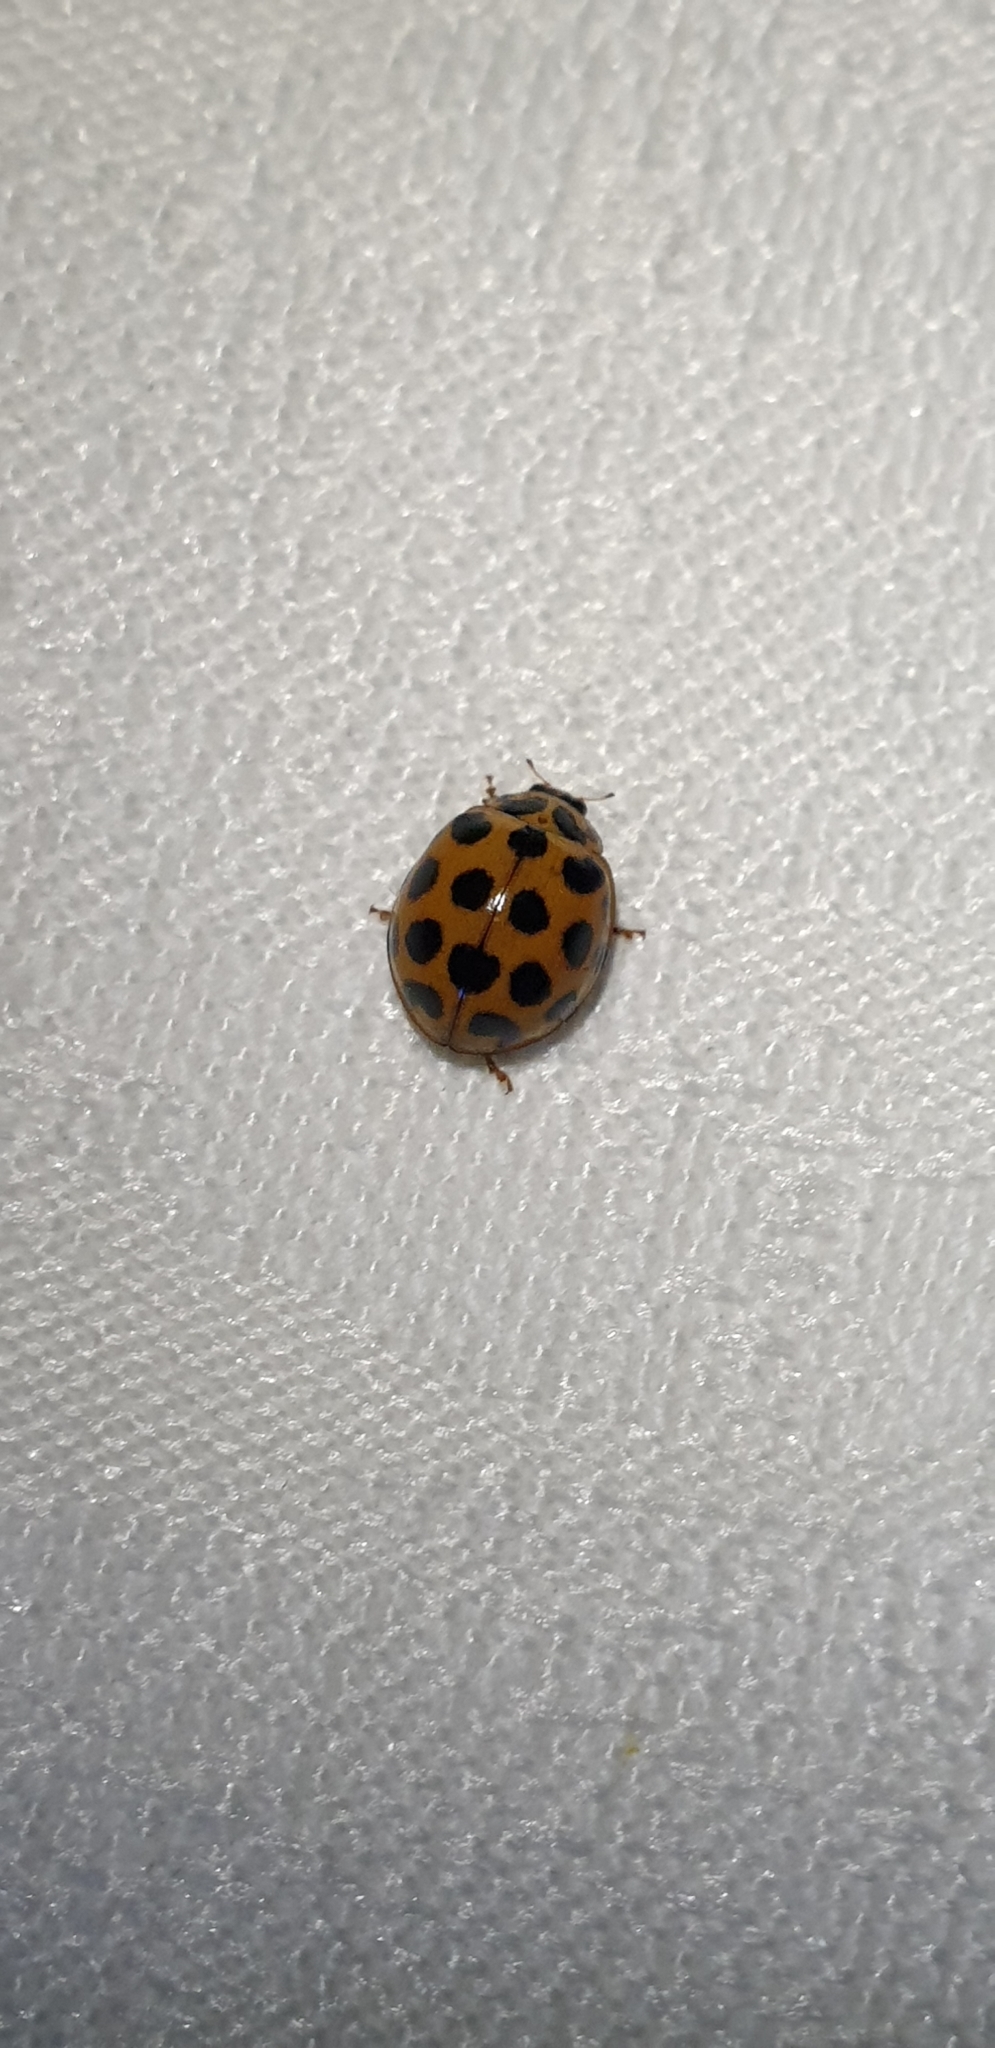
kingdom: Animalia
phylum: Arthropoda
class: Insecta
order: Coleoptera
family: Coccinellidae
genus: Harmonia
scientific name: Harmonia conformis
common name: Common spotted ladybird beetle
